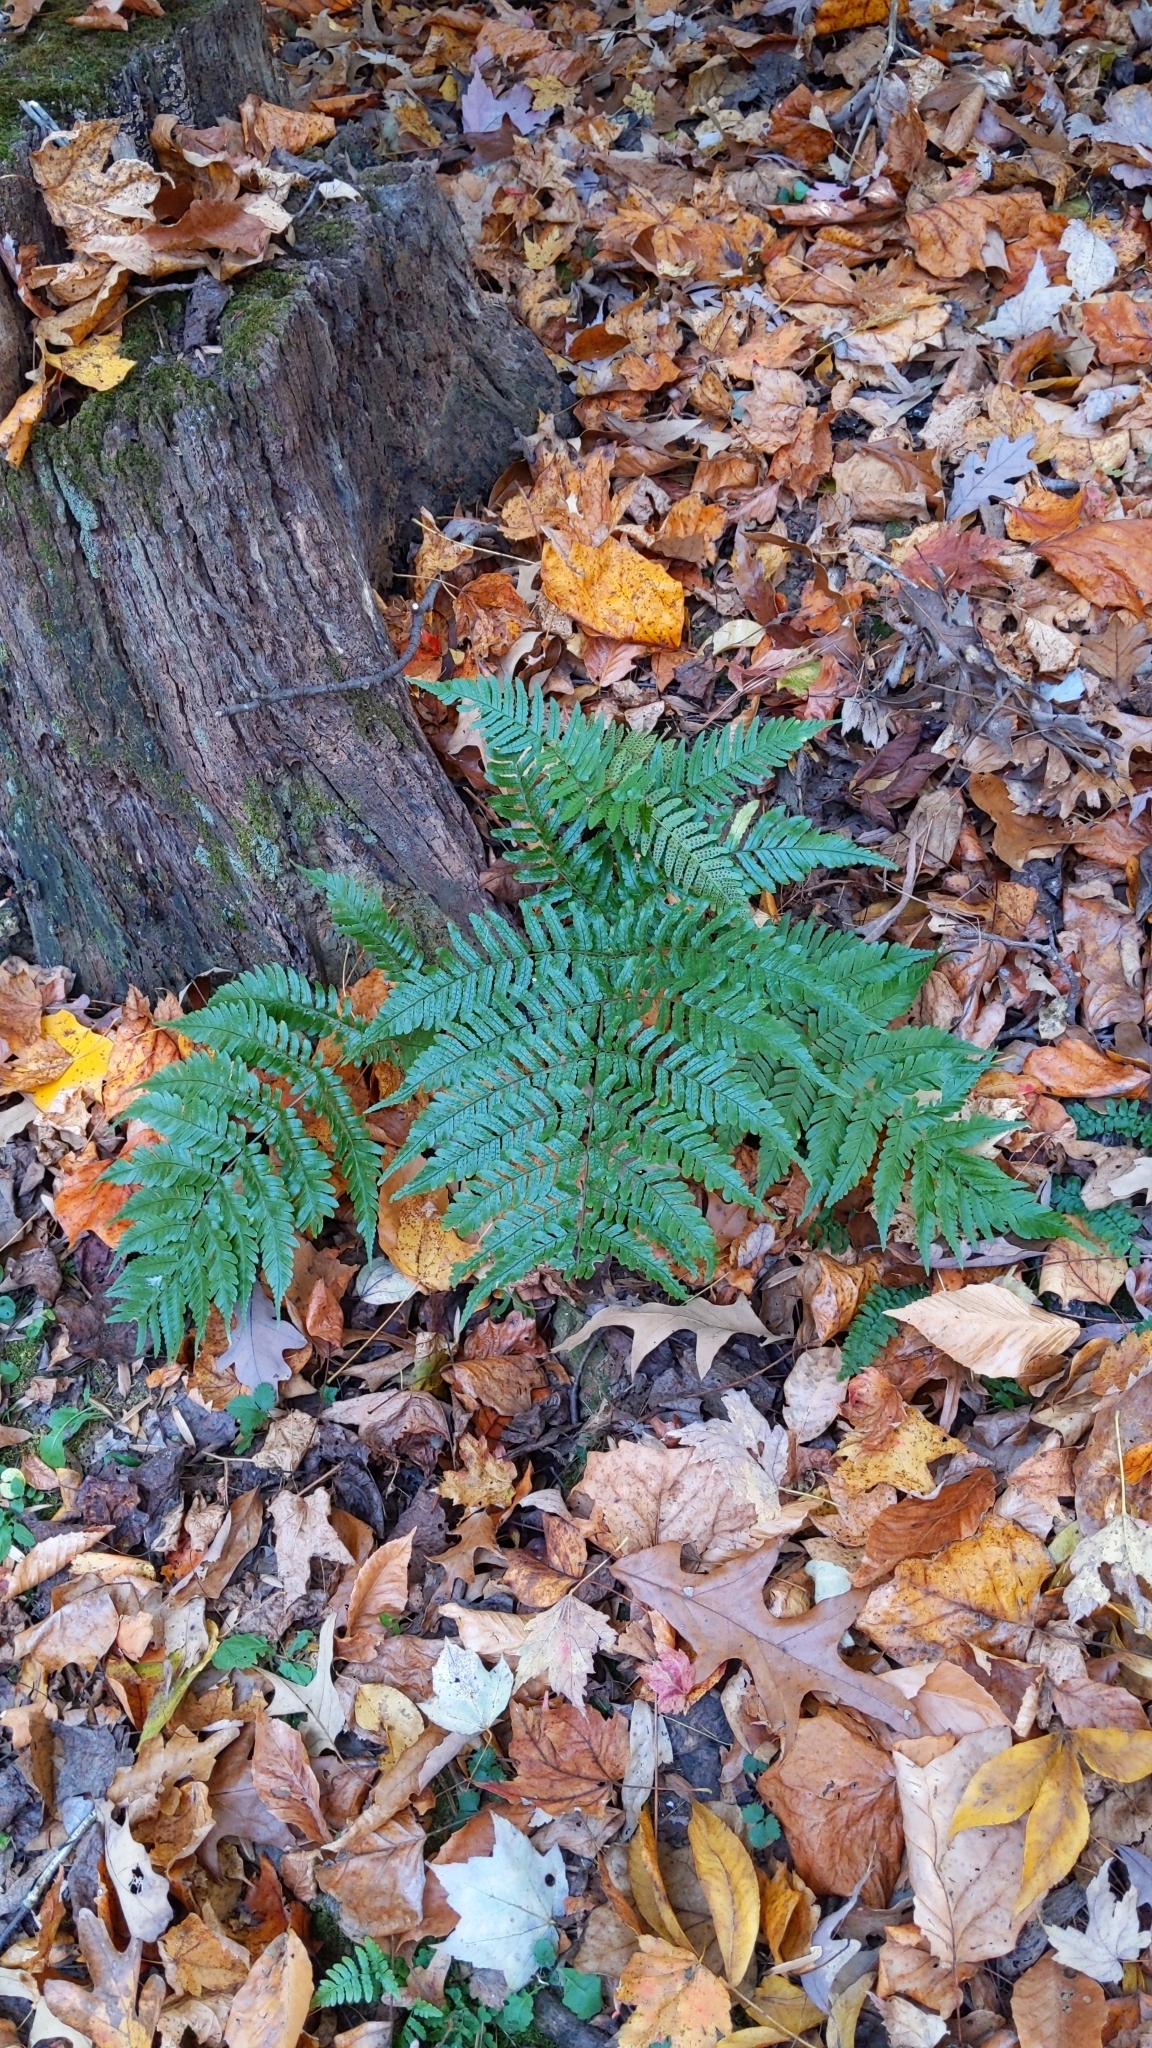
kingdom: Plantae
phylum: Tracheophyta
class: Polypodiopsida
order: Polypodiales
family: Dryopteridaceae
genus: Dryopteris
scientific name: Dryopteris erythrosora
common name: Autumn fern
